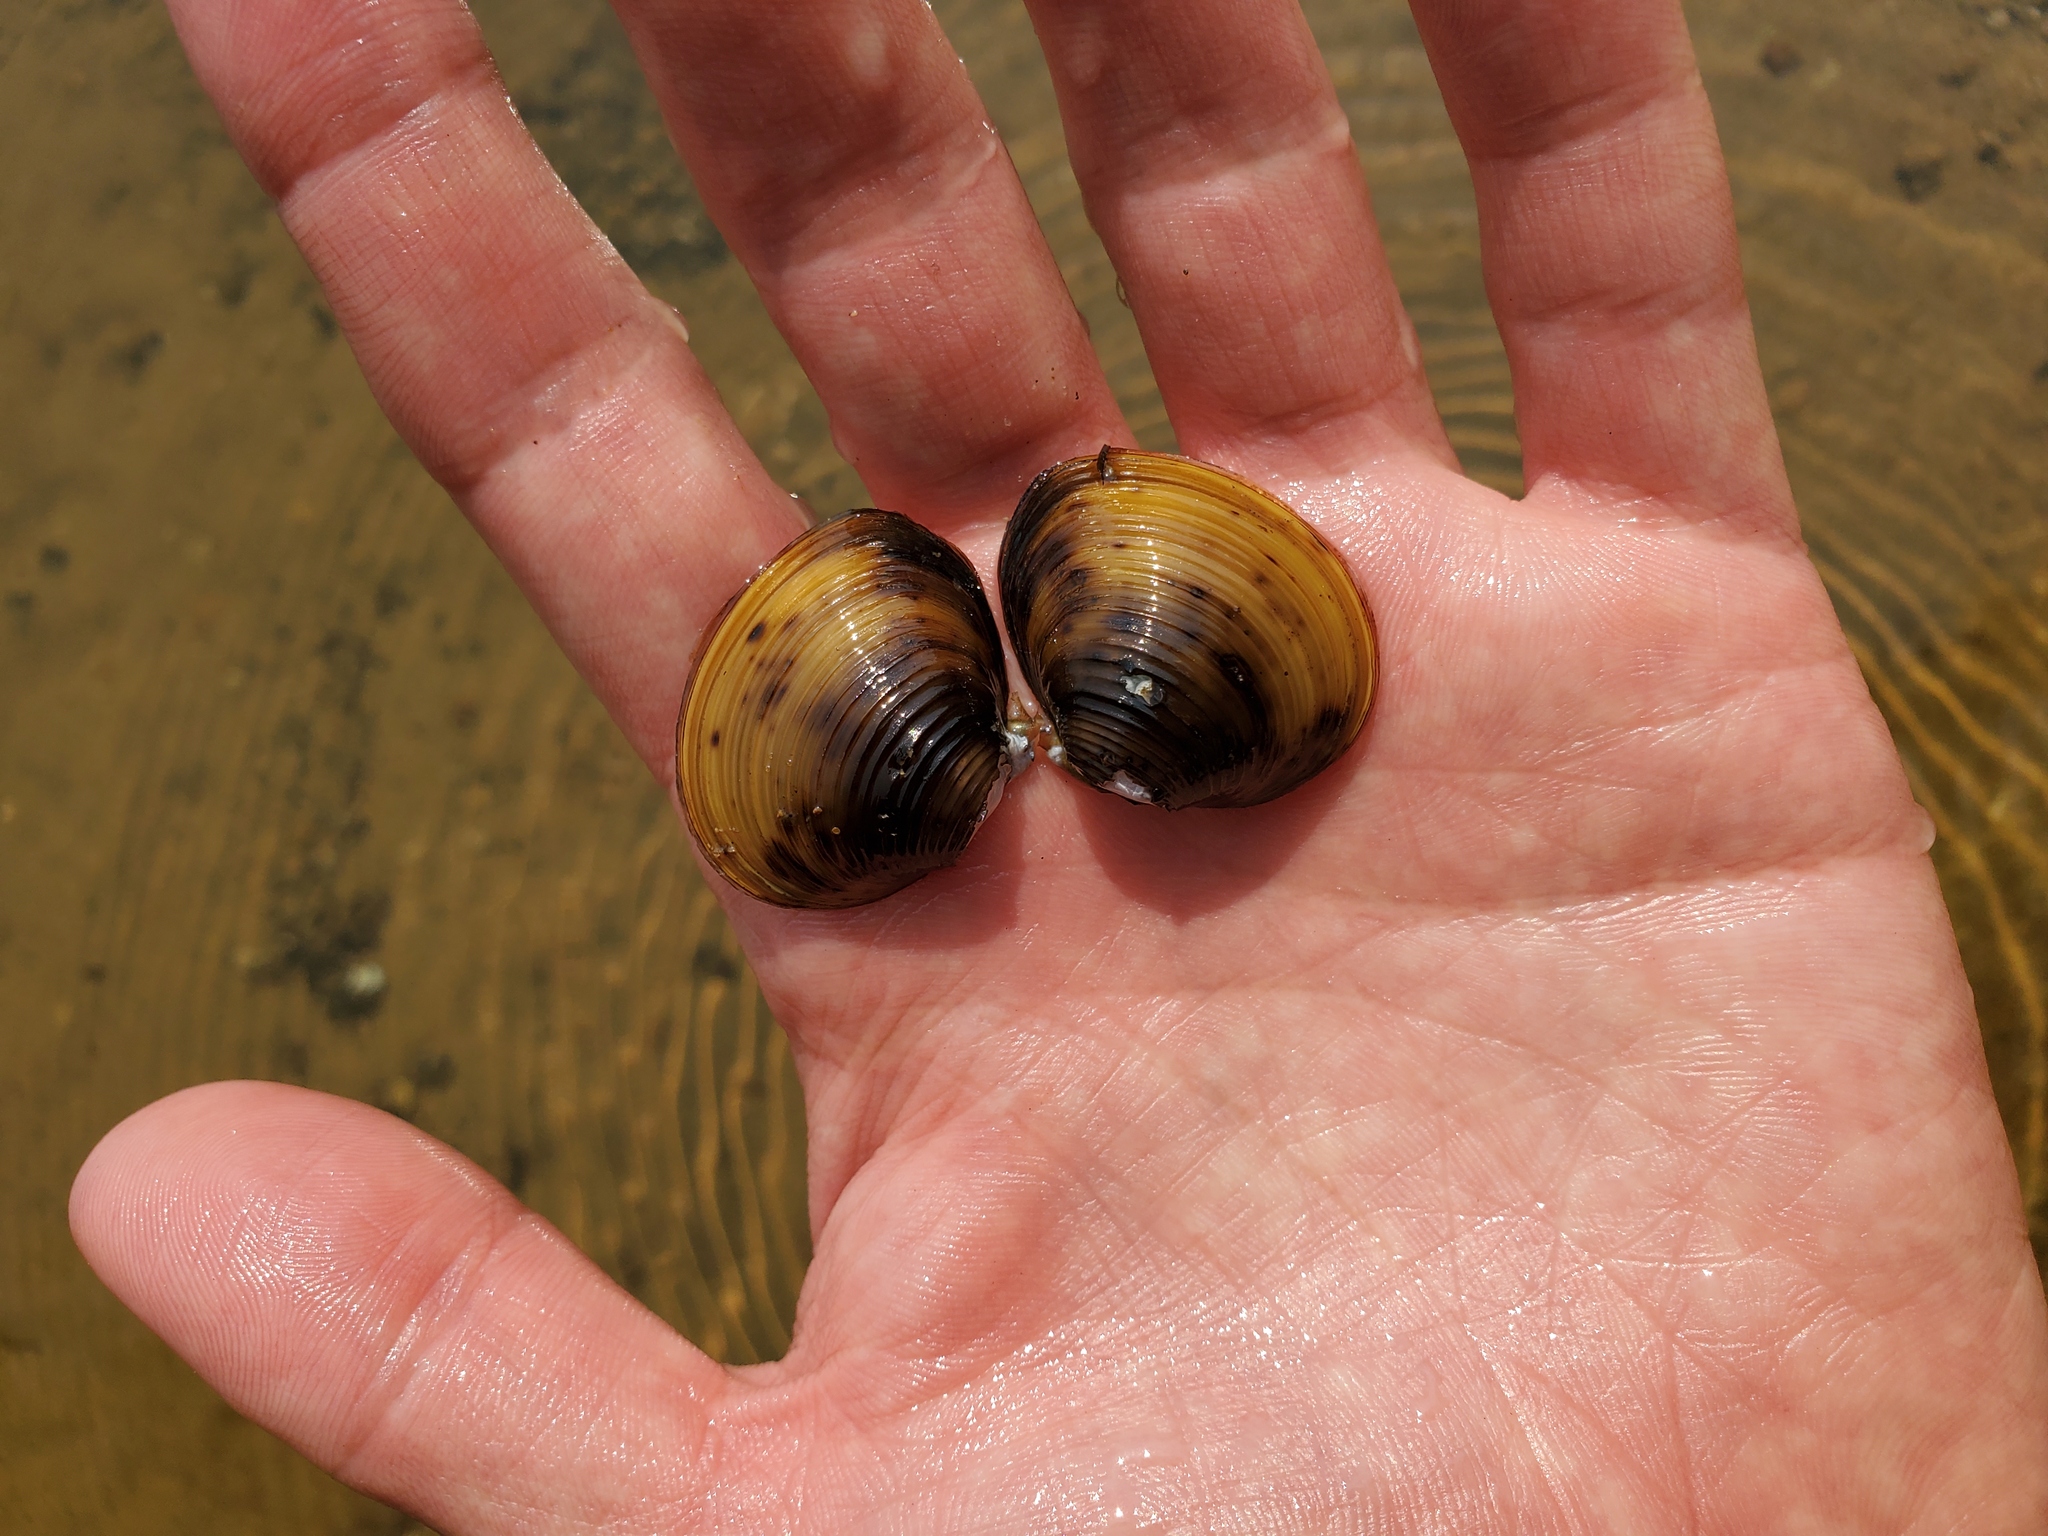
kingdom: Animalia
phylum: Mollusca
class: Bivalvia
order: Venerida
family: Cyrenidae
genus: Corbicula
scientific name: Corbicula fluminea
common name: Asian clam
